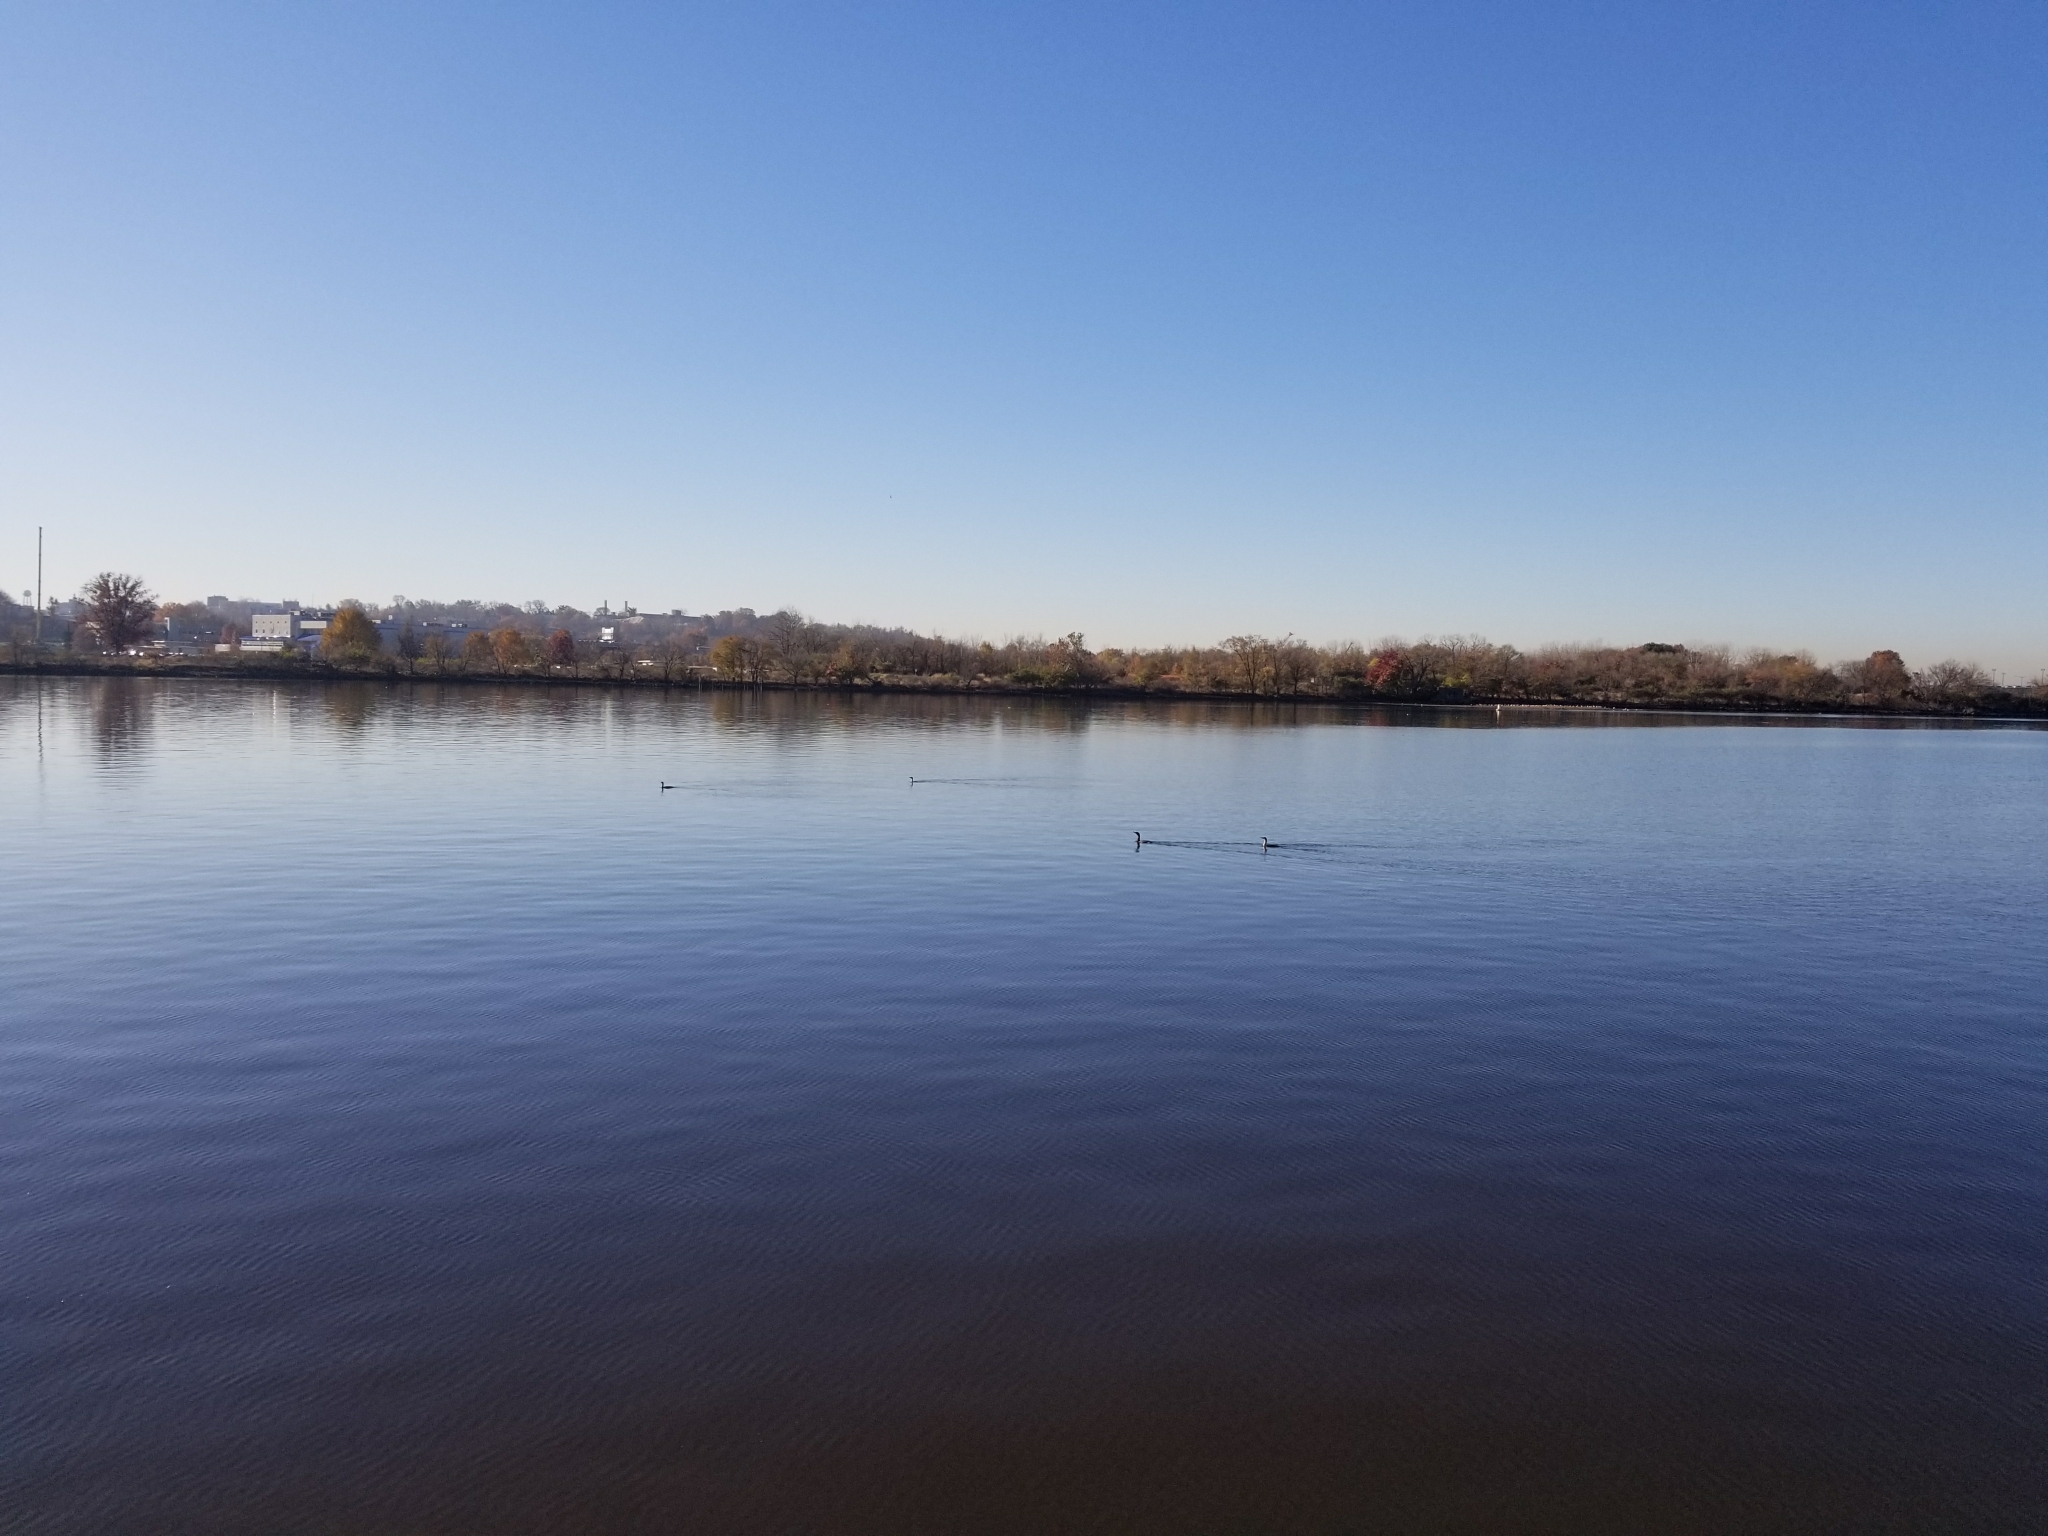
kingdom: Animalia
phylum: Chordata
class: Aves
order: Suliformes
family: Phalacrocoracidae
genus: Phalacrocorax
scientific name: Phalacrocorax auritus
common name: Double-crested cormorant
